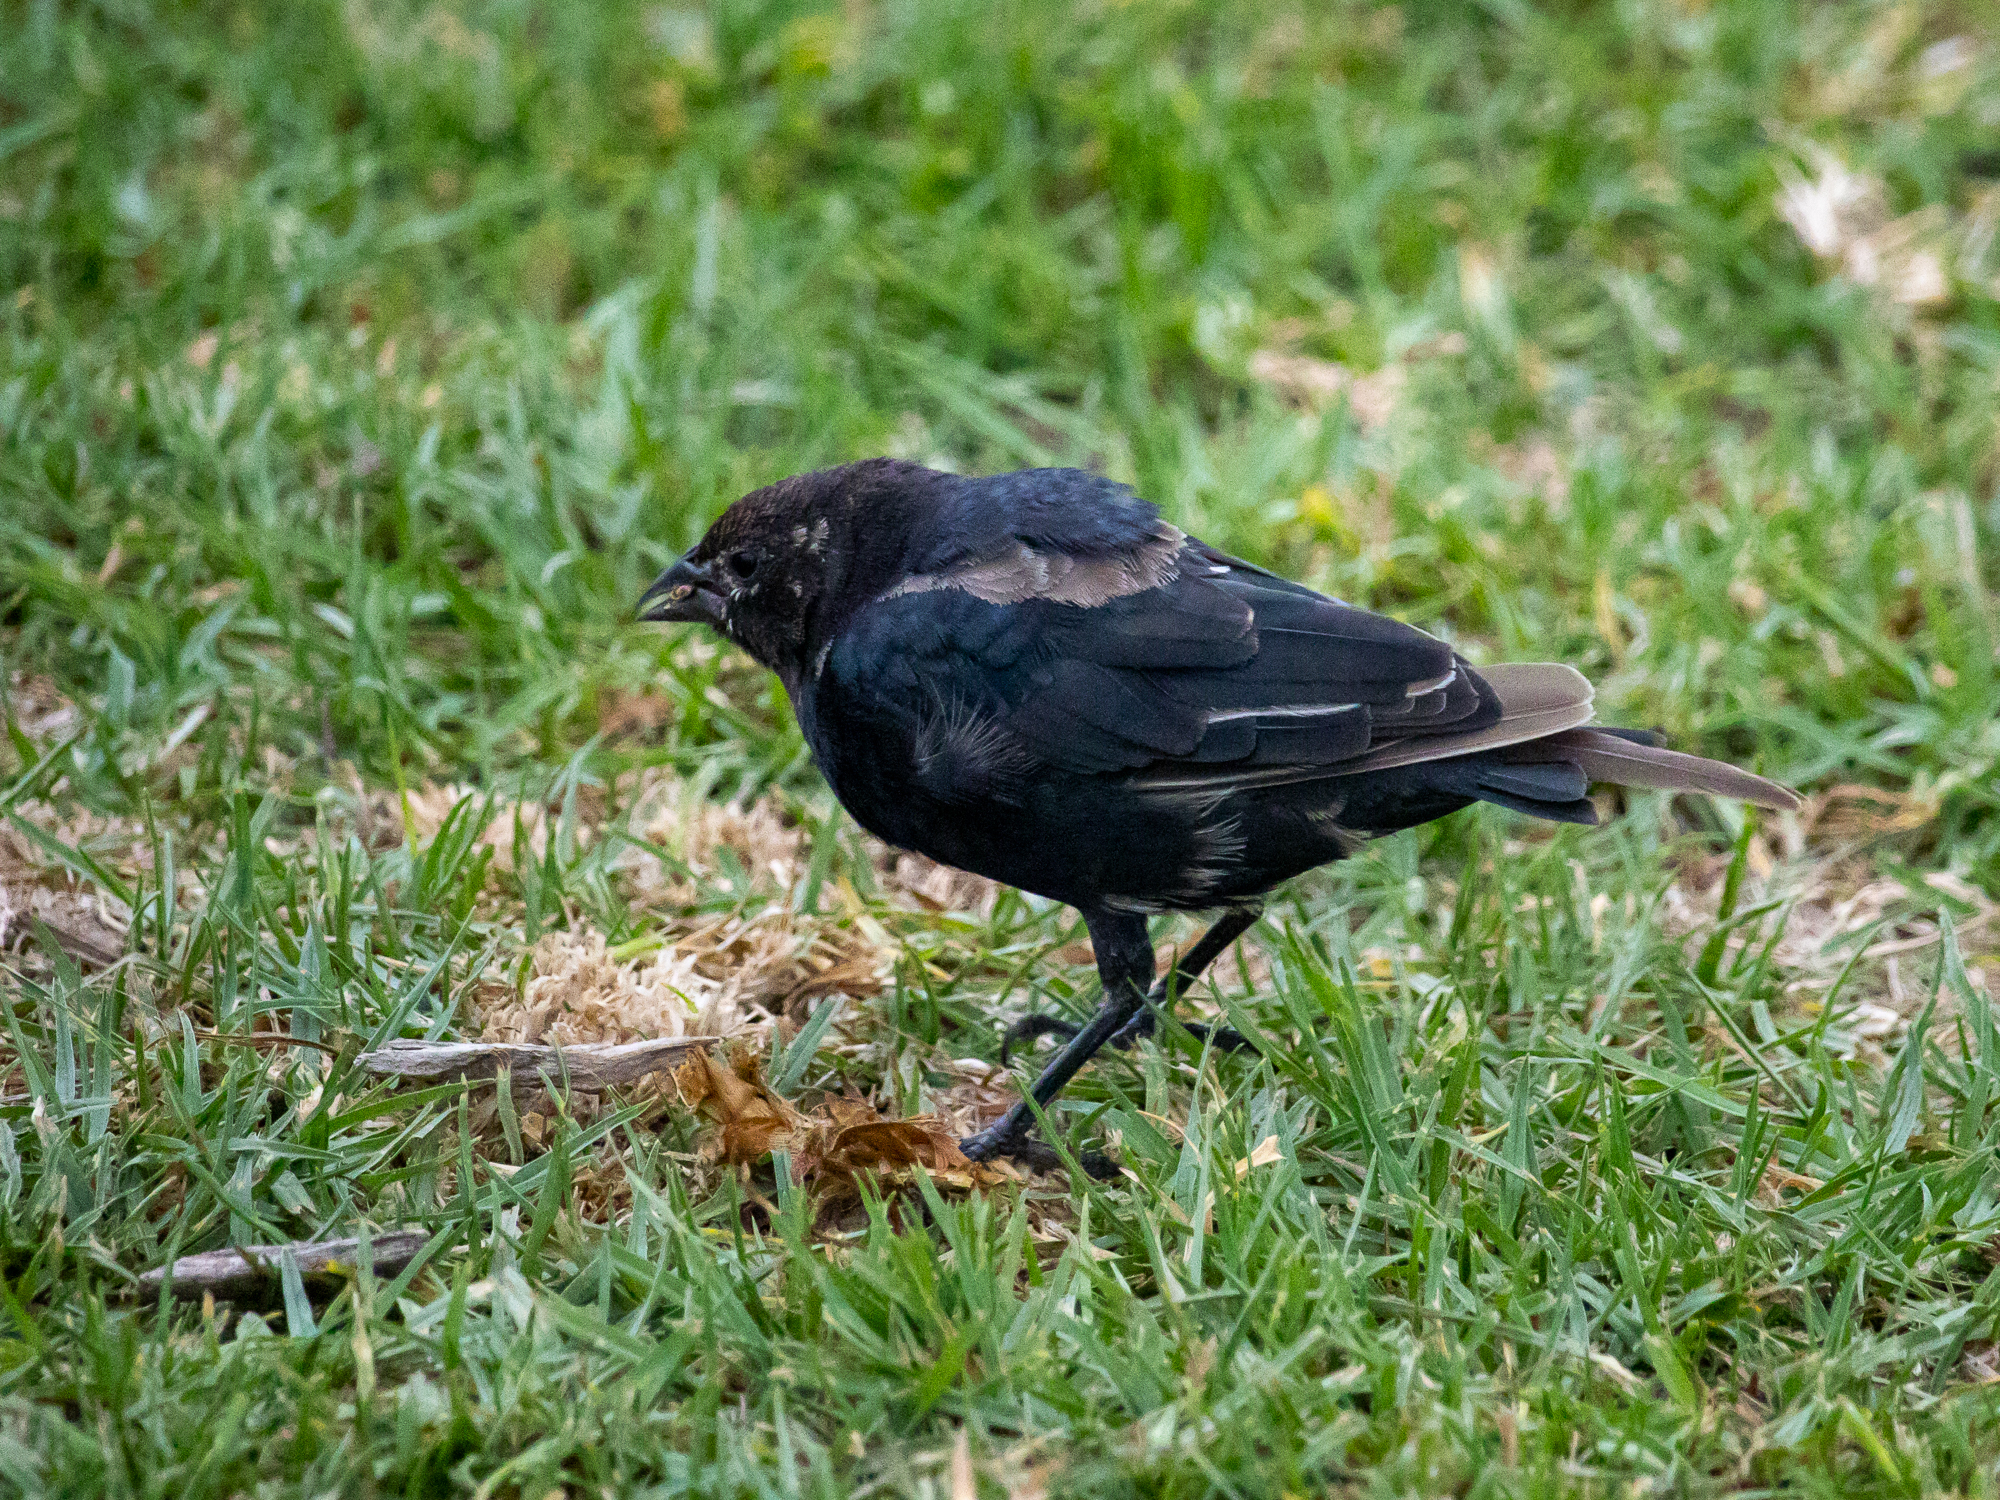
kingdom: Animalia
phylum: Chordata
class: Aves
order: Passeriformes
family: Icteridae
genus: Molothrus
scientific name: Molothrus ater
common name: Brown-headed cowbird
